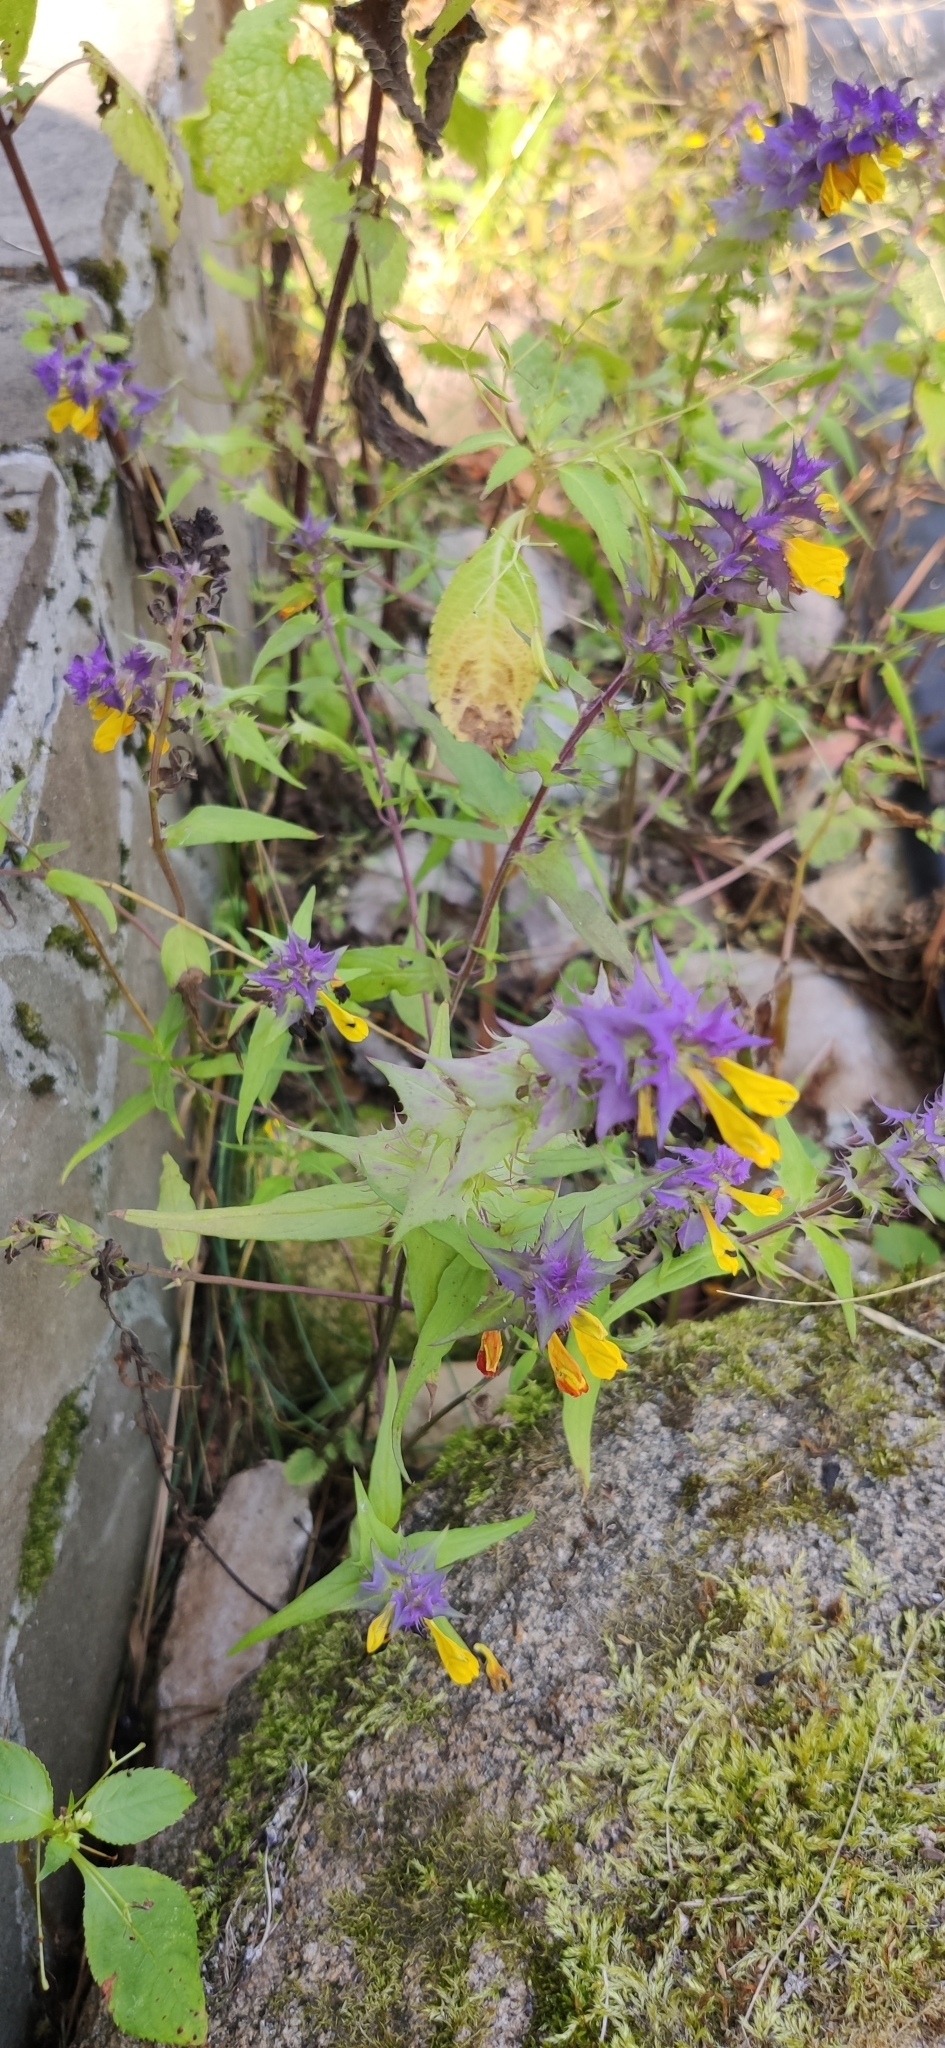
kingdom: Plantae
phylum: Tracheophyta
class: Magnoliopsida
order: Lamiales
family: Orobanchaceae
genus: Melampyrum
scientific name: Melampyrum nemorosum
